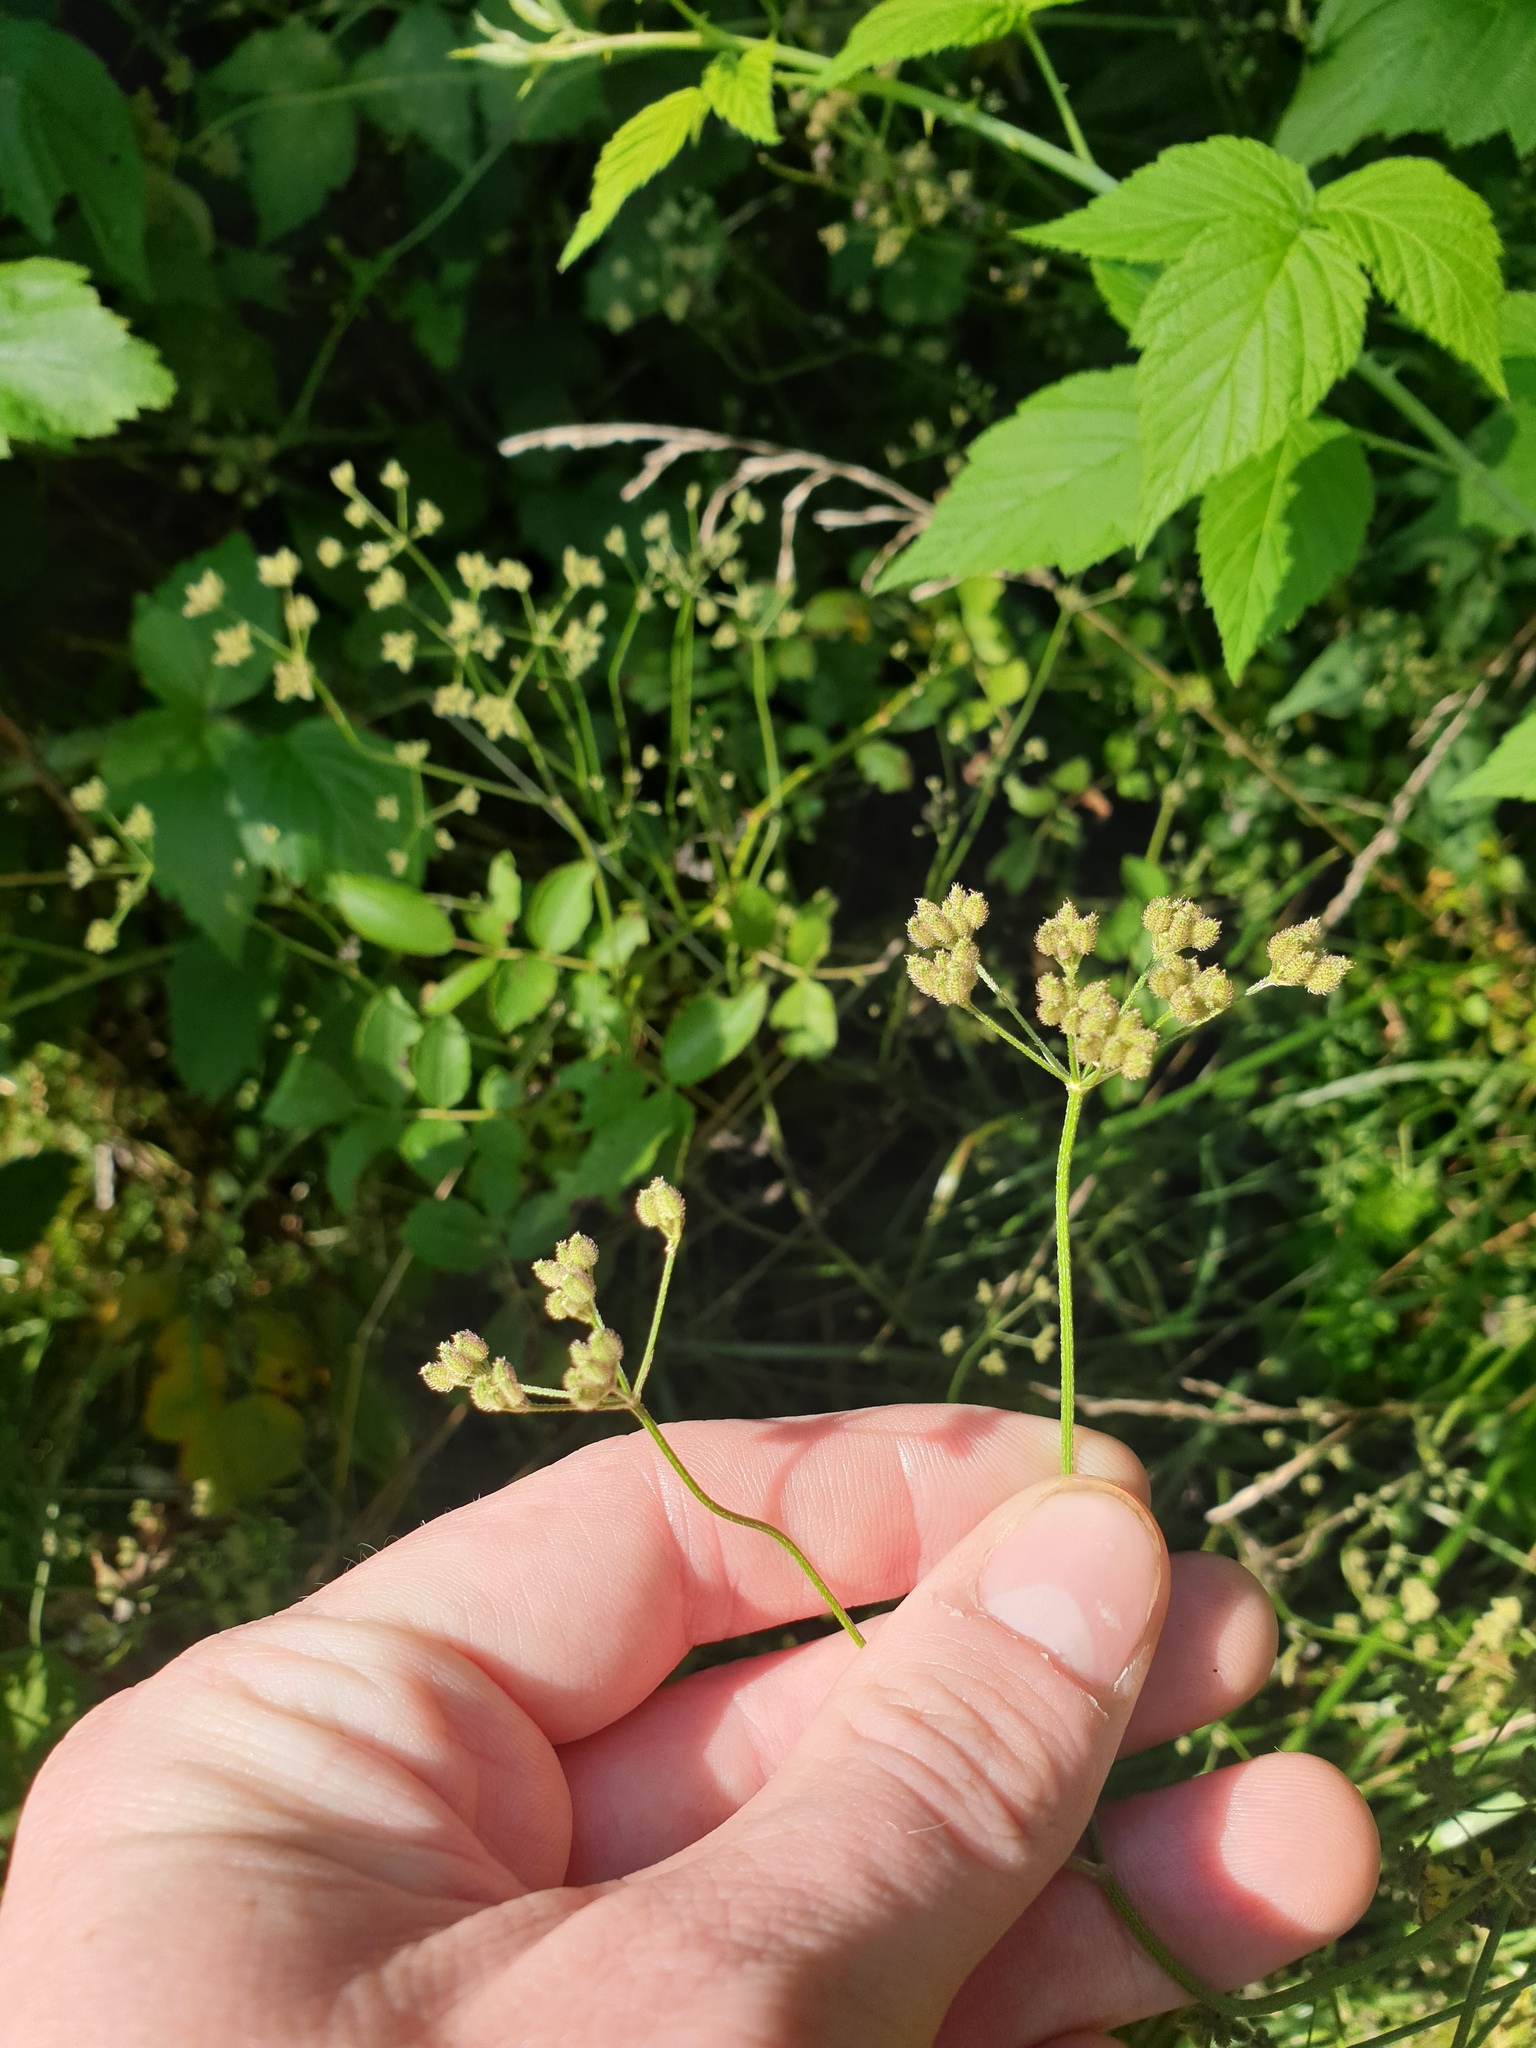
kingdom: Plantae
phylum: Tracheophyta
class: Magnoliopsida
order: Apiales
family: Apiaceae
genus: Torilis
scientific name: Torilis japonica
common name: Upright hedge-parsley
